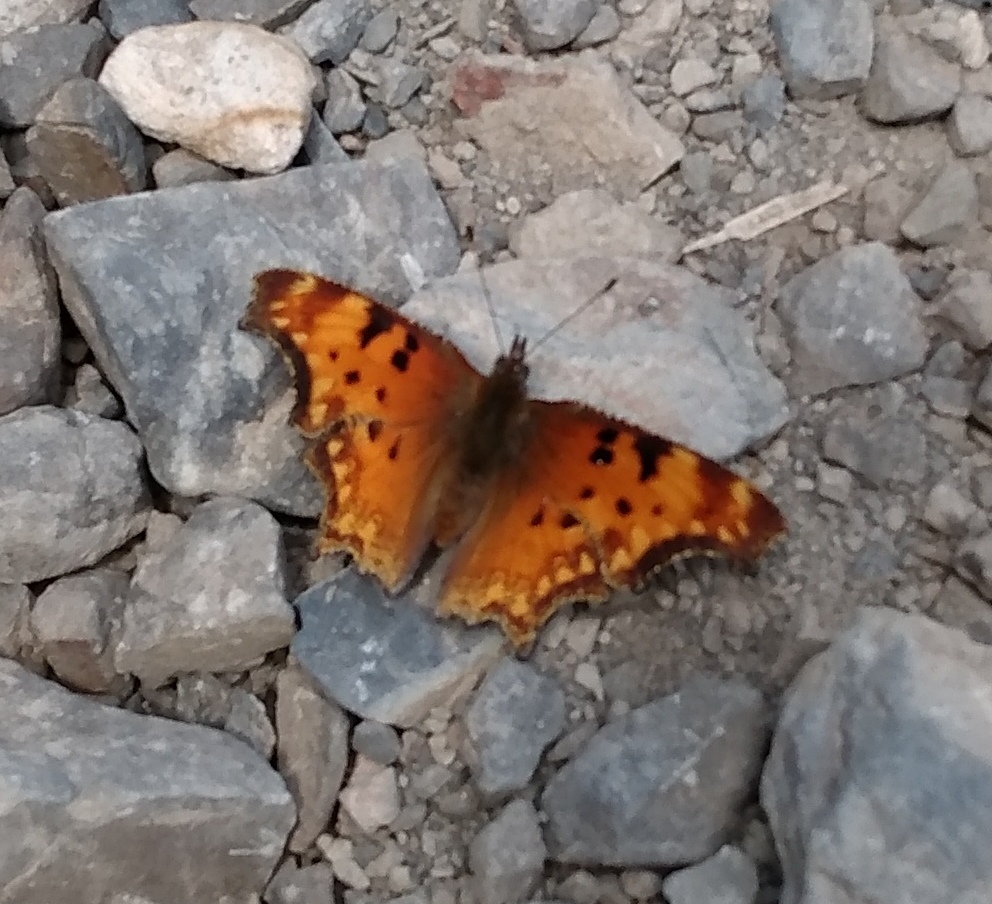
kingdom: Animalia
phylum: Arthropoda
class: Insecta
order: Lepidoptera
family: Nymphalidae
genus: Polygonia
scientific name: Polygonia gracilis
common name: Hoary comma
